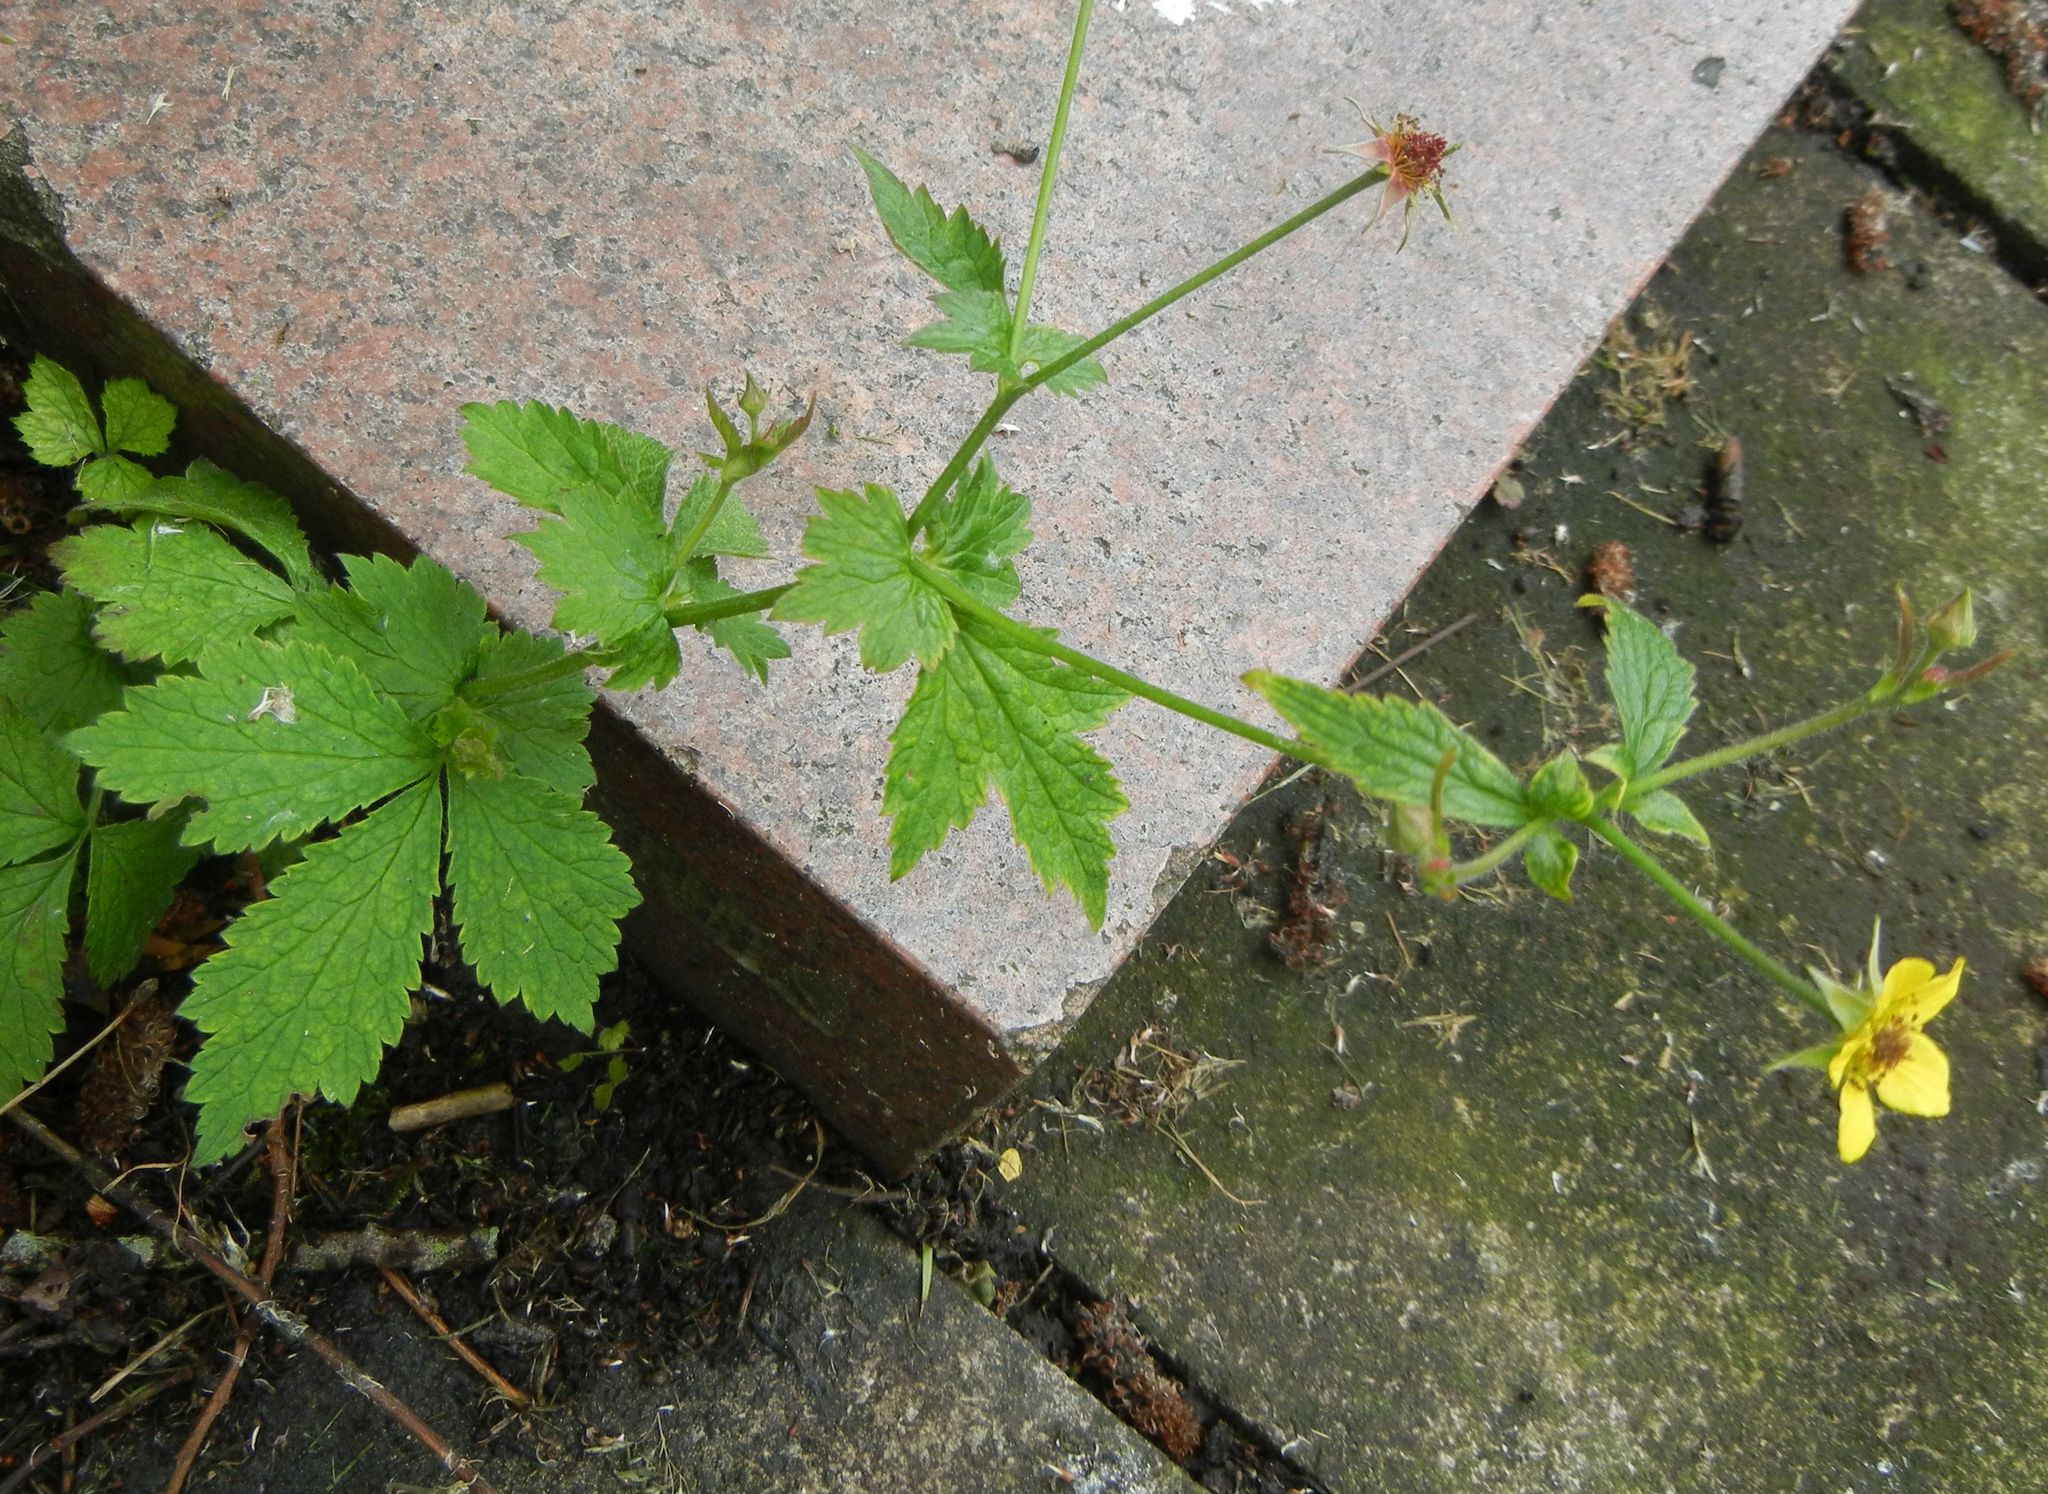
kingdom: Plantae
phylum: Tracheophyta
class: Magnoliopsida
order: Rosales
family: Rosaceae
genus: Geum
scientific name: Geum urbanum
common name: Wood avens
